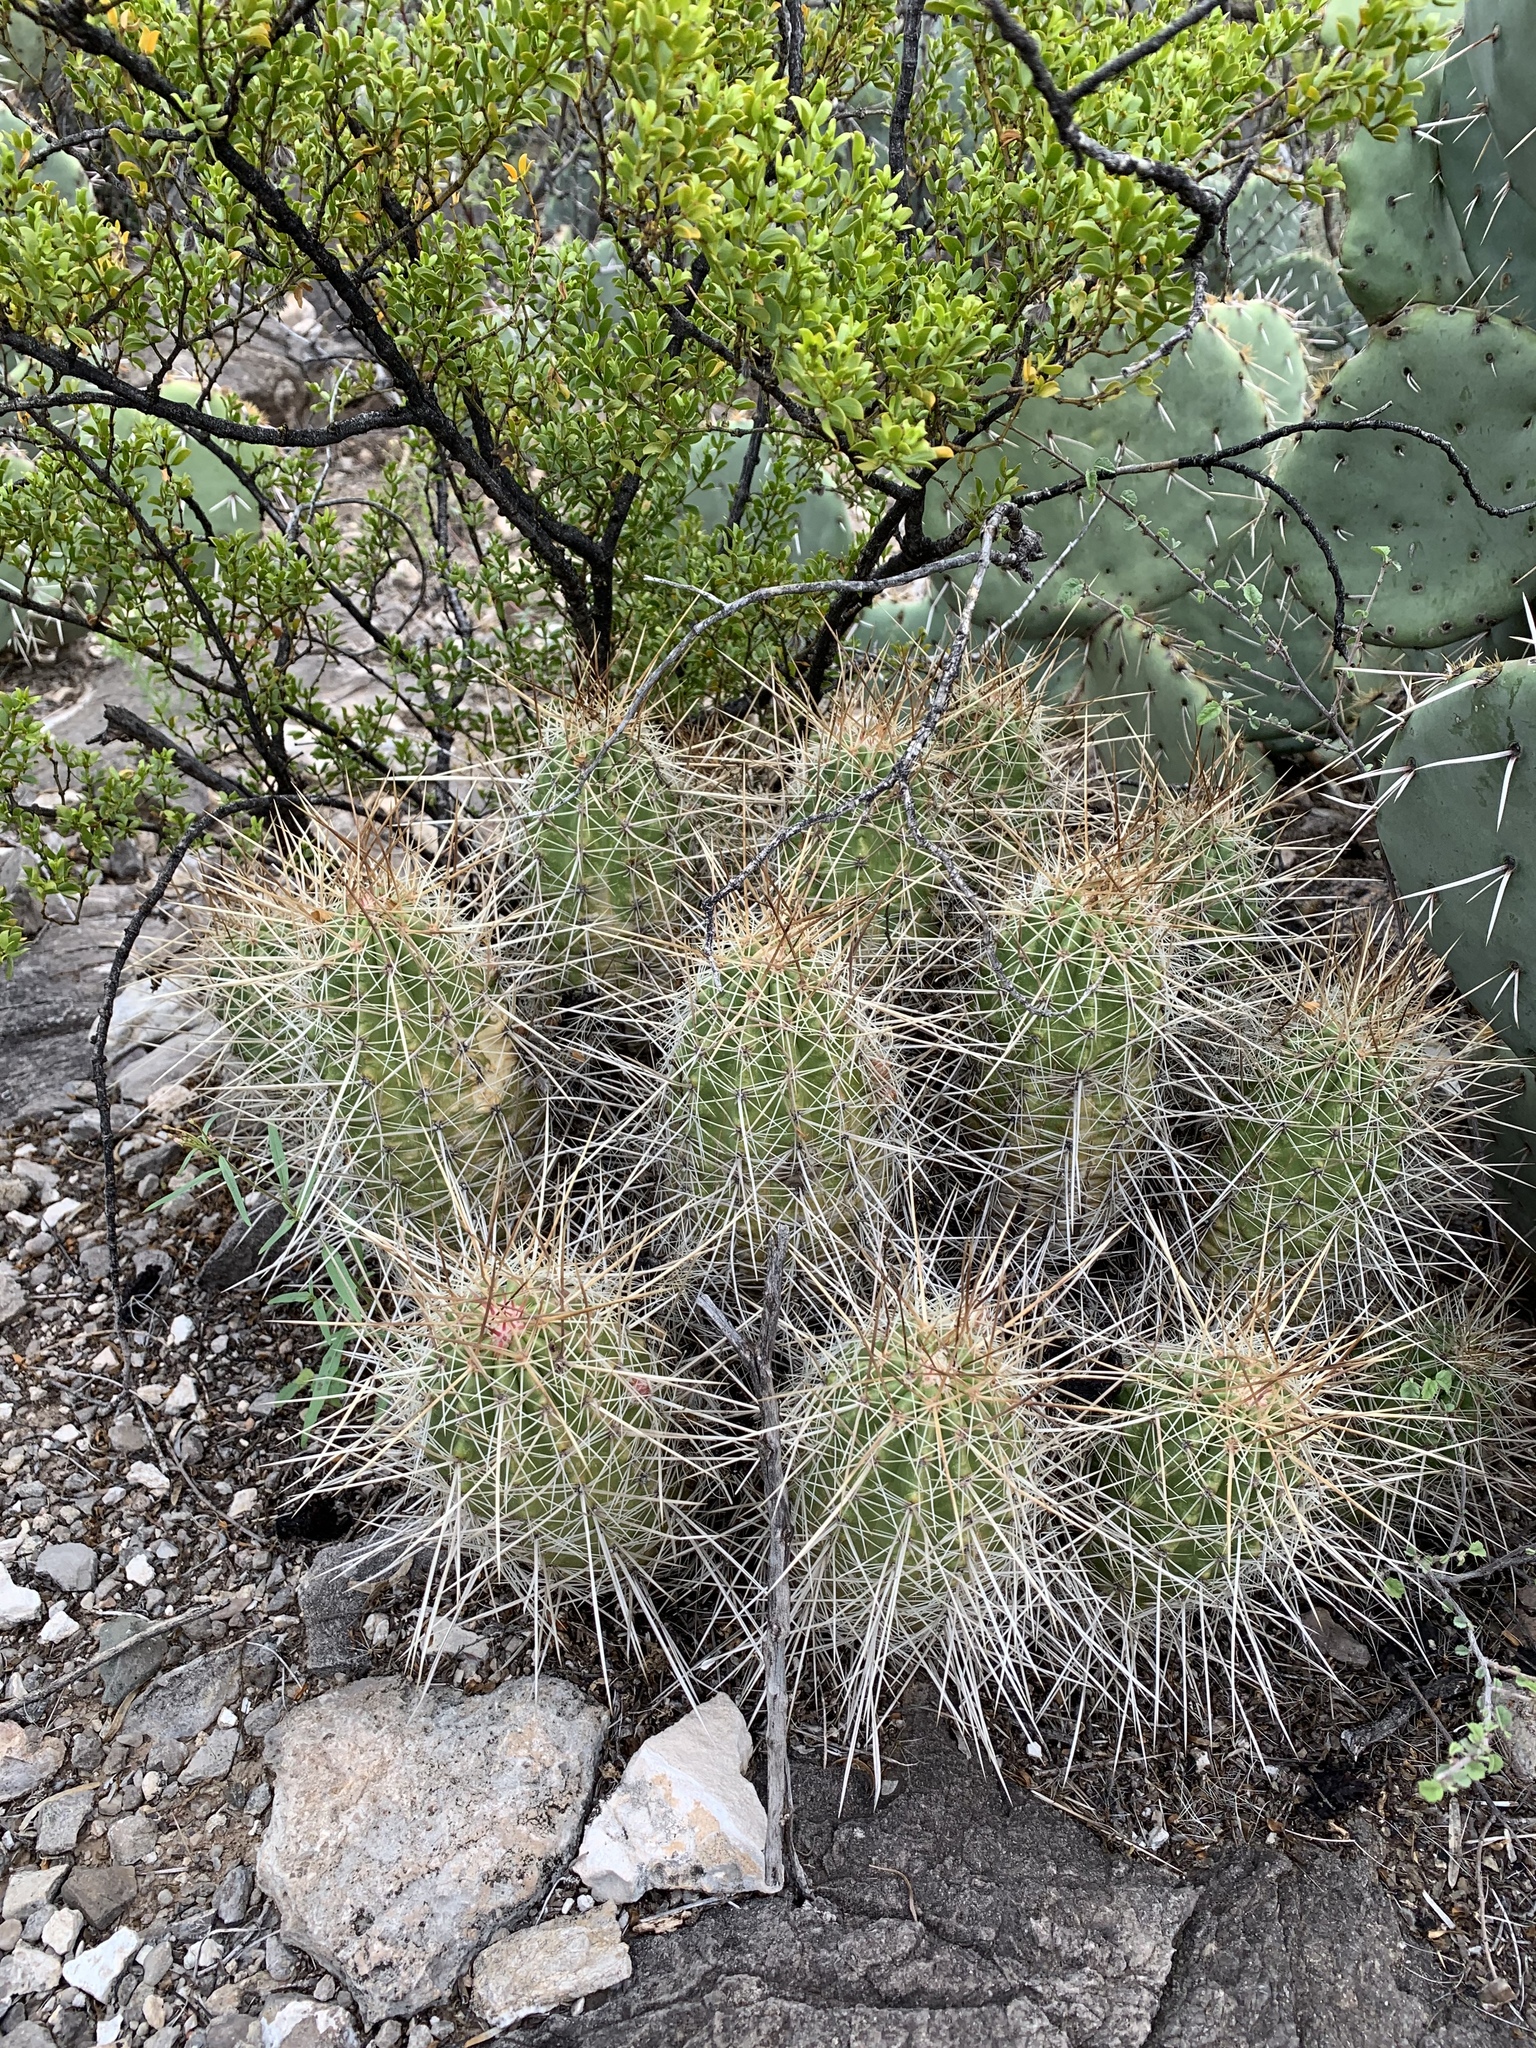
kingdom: Plantae
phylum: Tracheophyta
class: Magnoliopsida
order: Caryophyllales
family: Cactaceae
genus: Echinocereus
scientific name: Echinocereus stramineus
